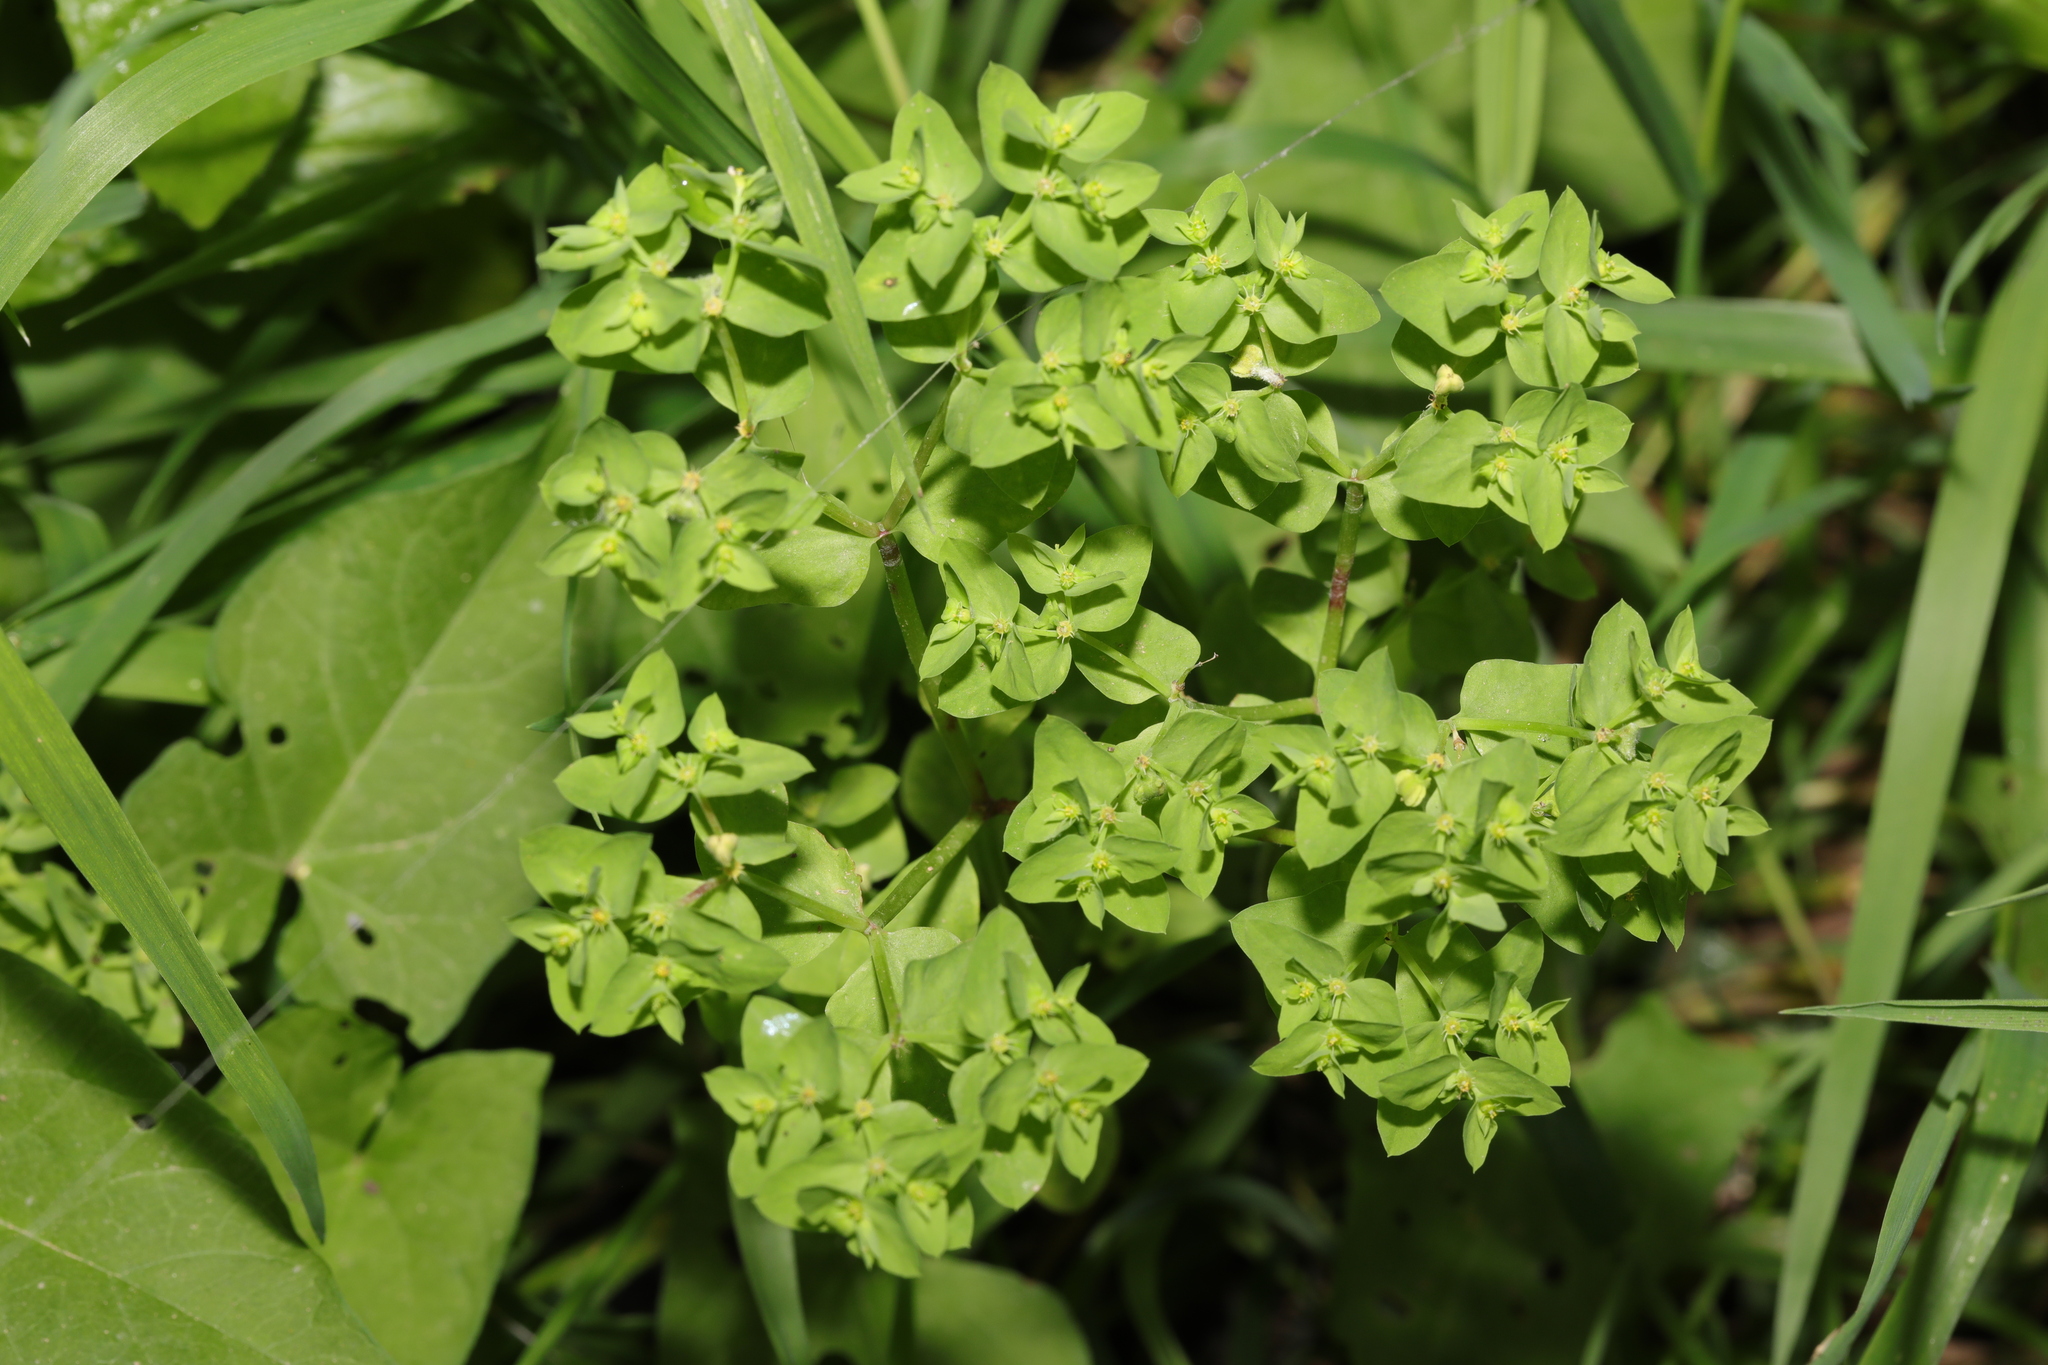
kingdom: Plantae
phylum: Tracheophyta
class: Magnoliopsida
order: Malpighiales
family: Euphorbiaceae
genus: Euphorbia
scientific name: Euphorbia peplus
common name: Petty spurge
